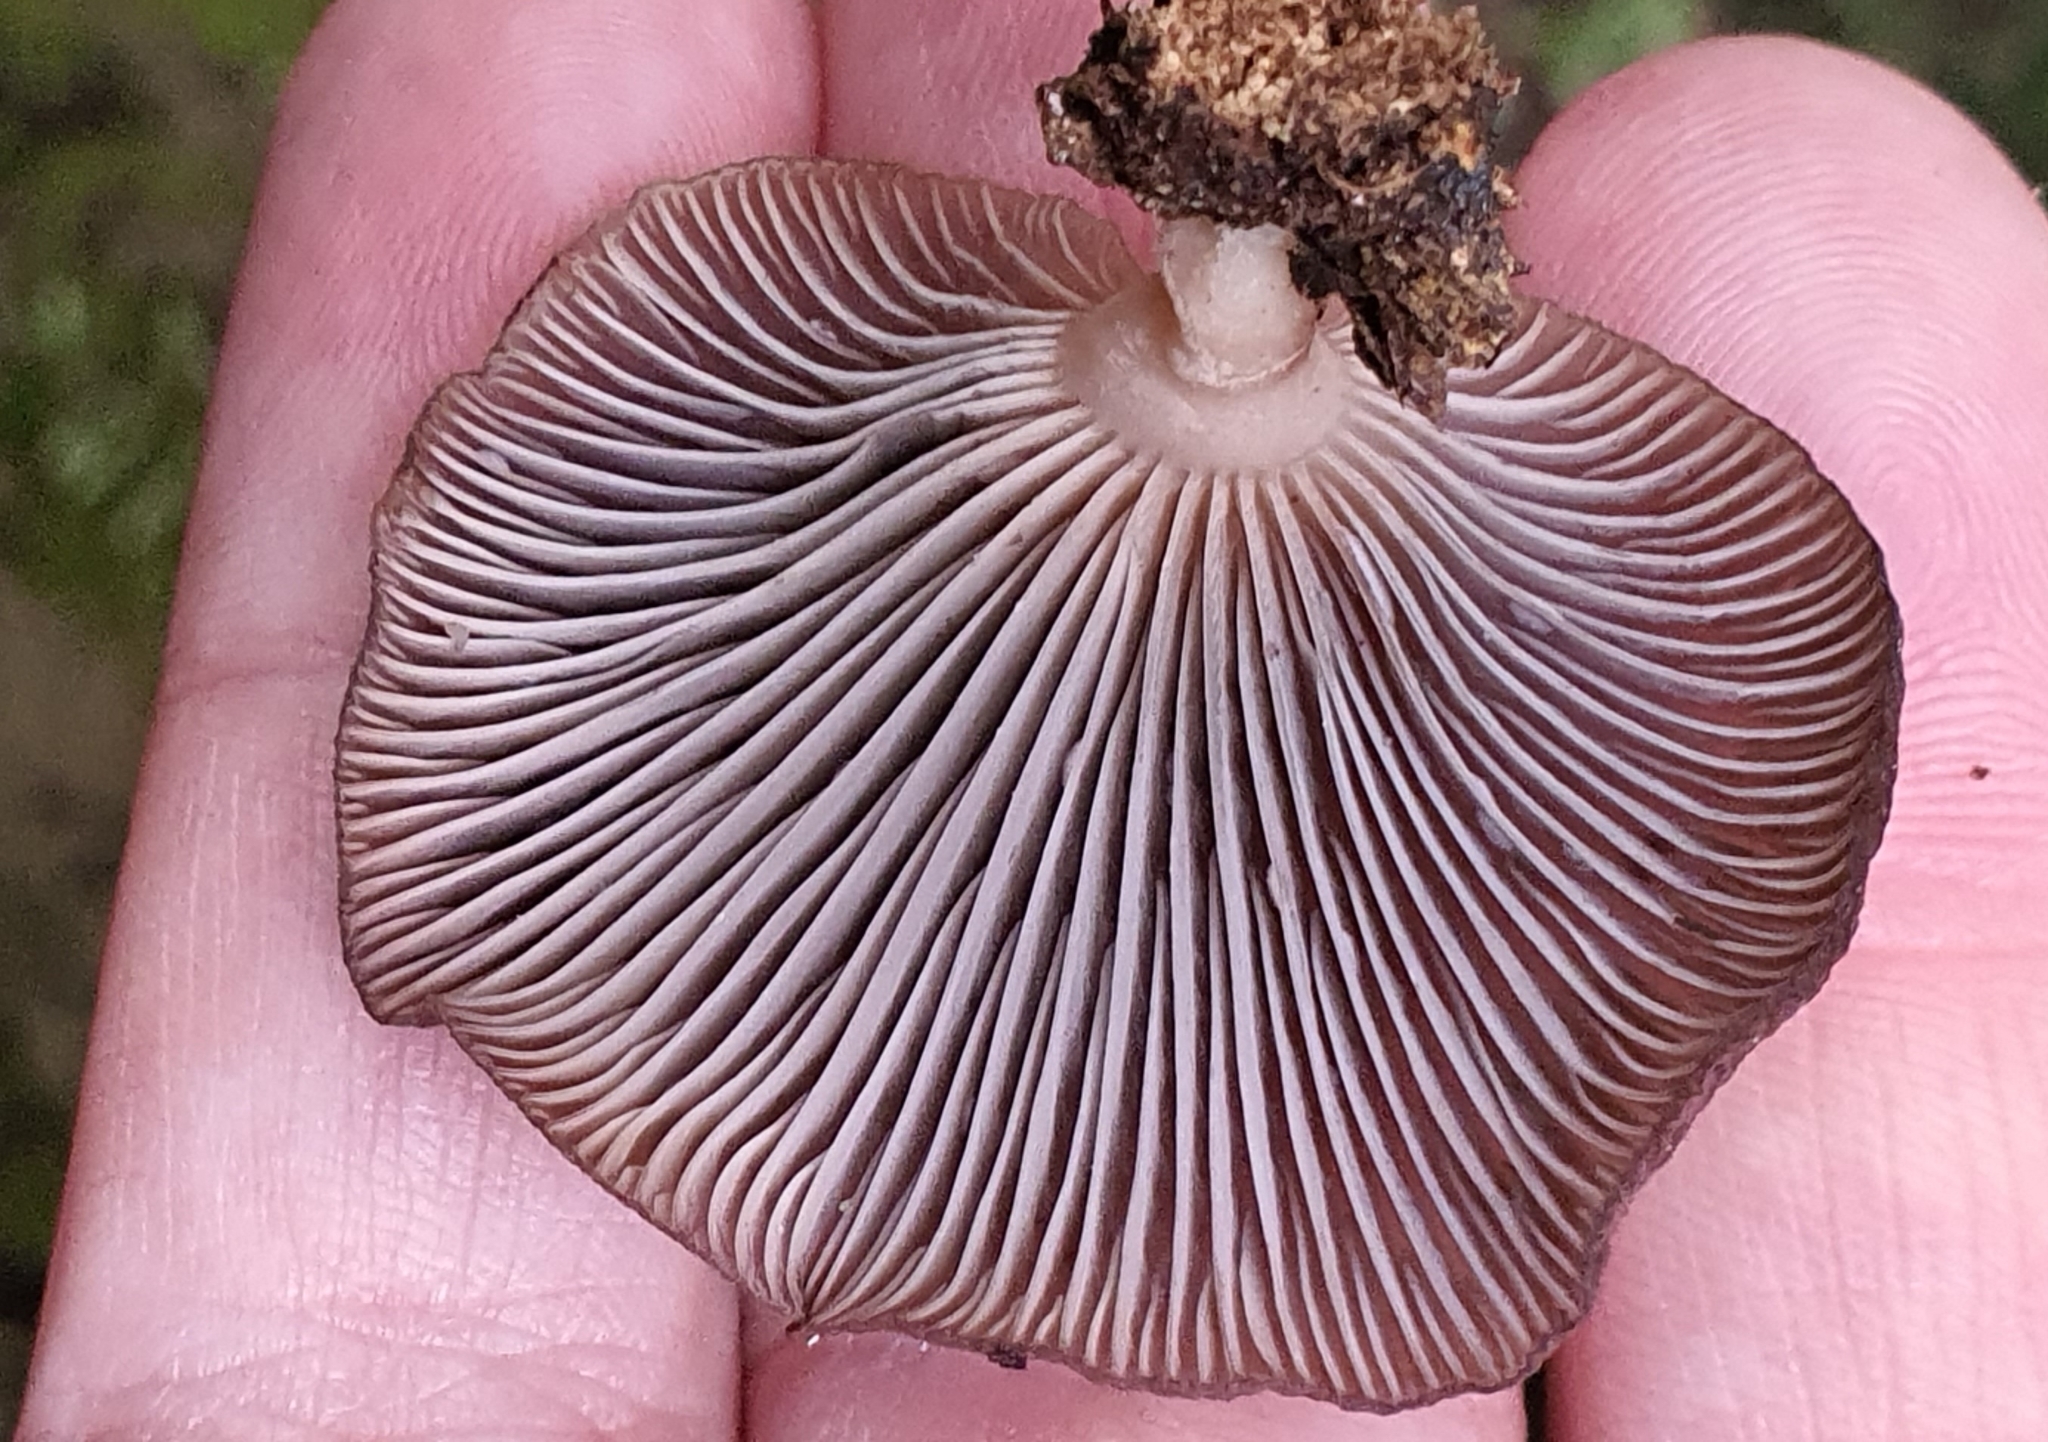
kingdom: Fungi
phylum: Basidiomycota
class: Agaricomycetes
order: Agaricales
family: Mycenaceae
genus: Panellus
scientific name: Panellus longinquus
